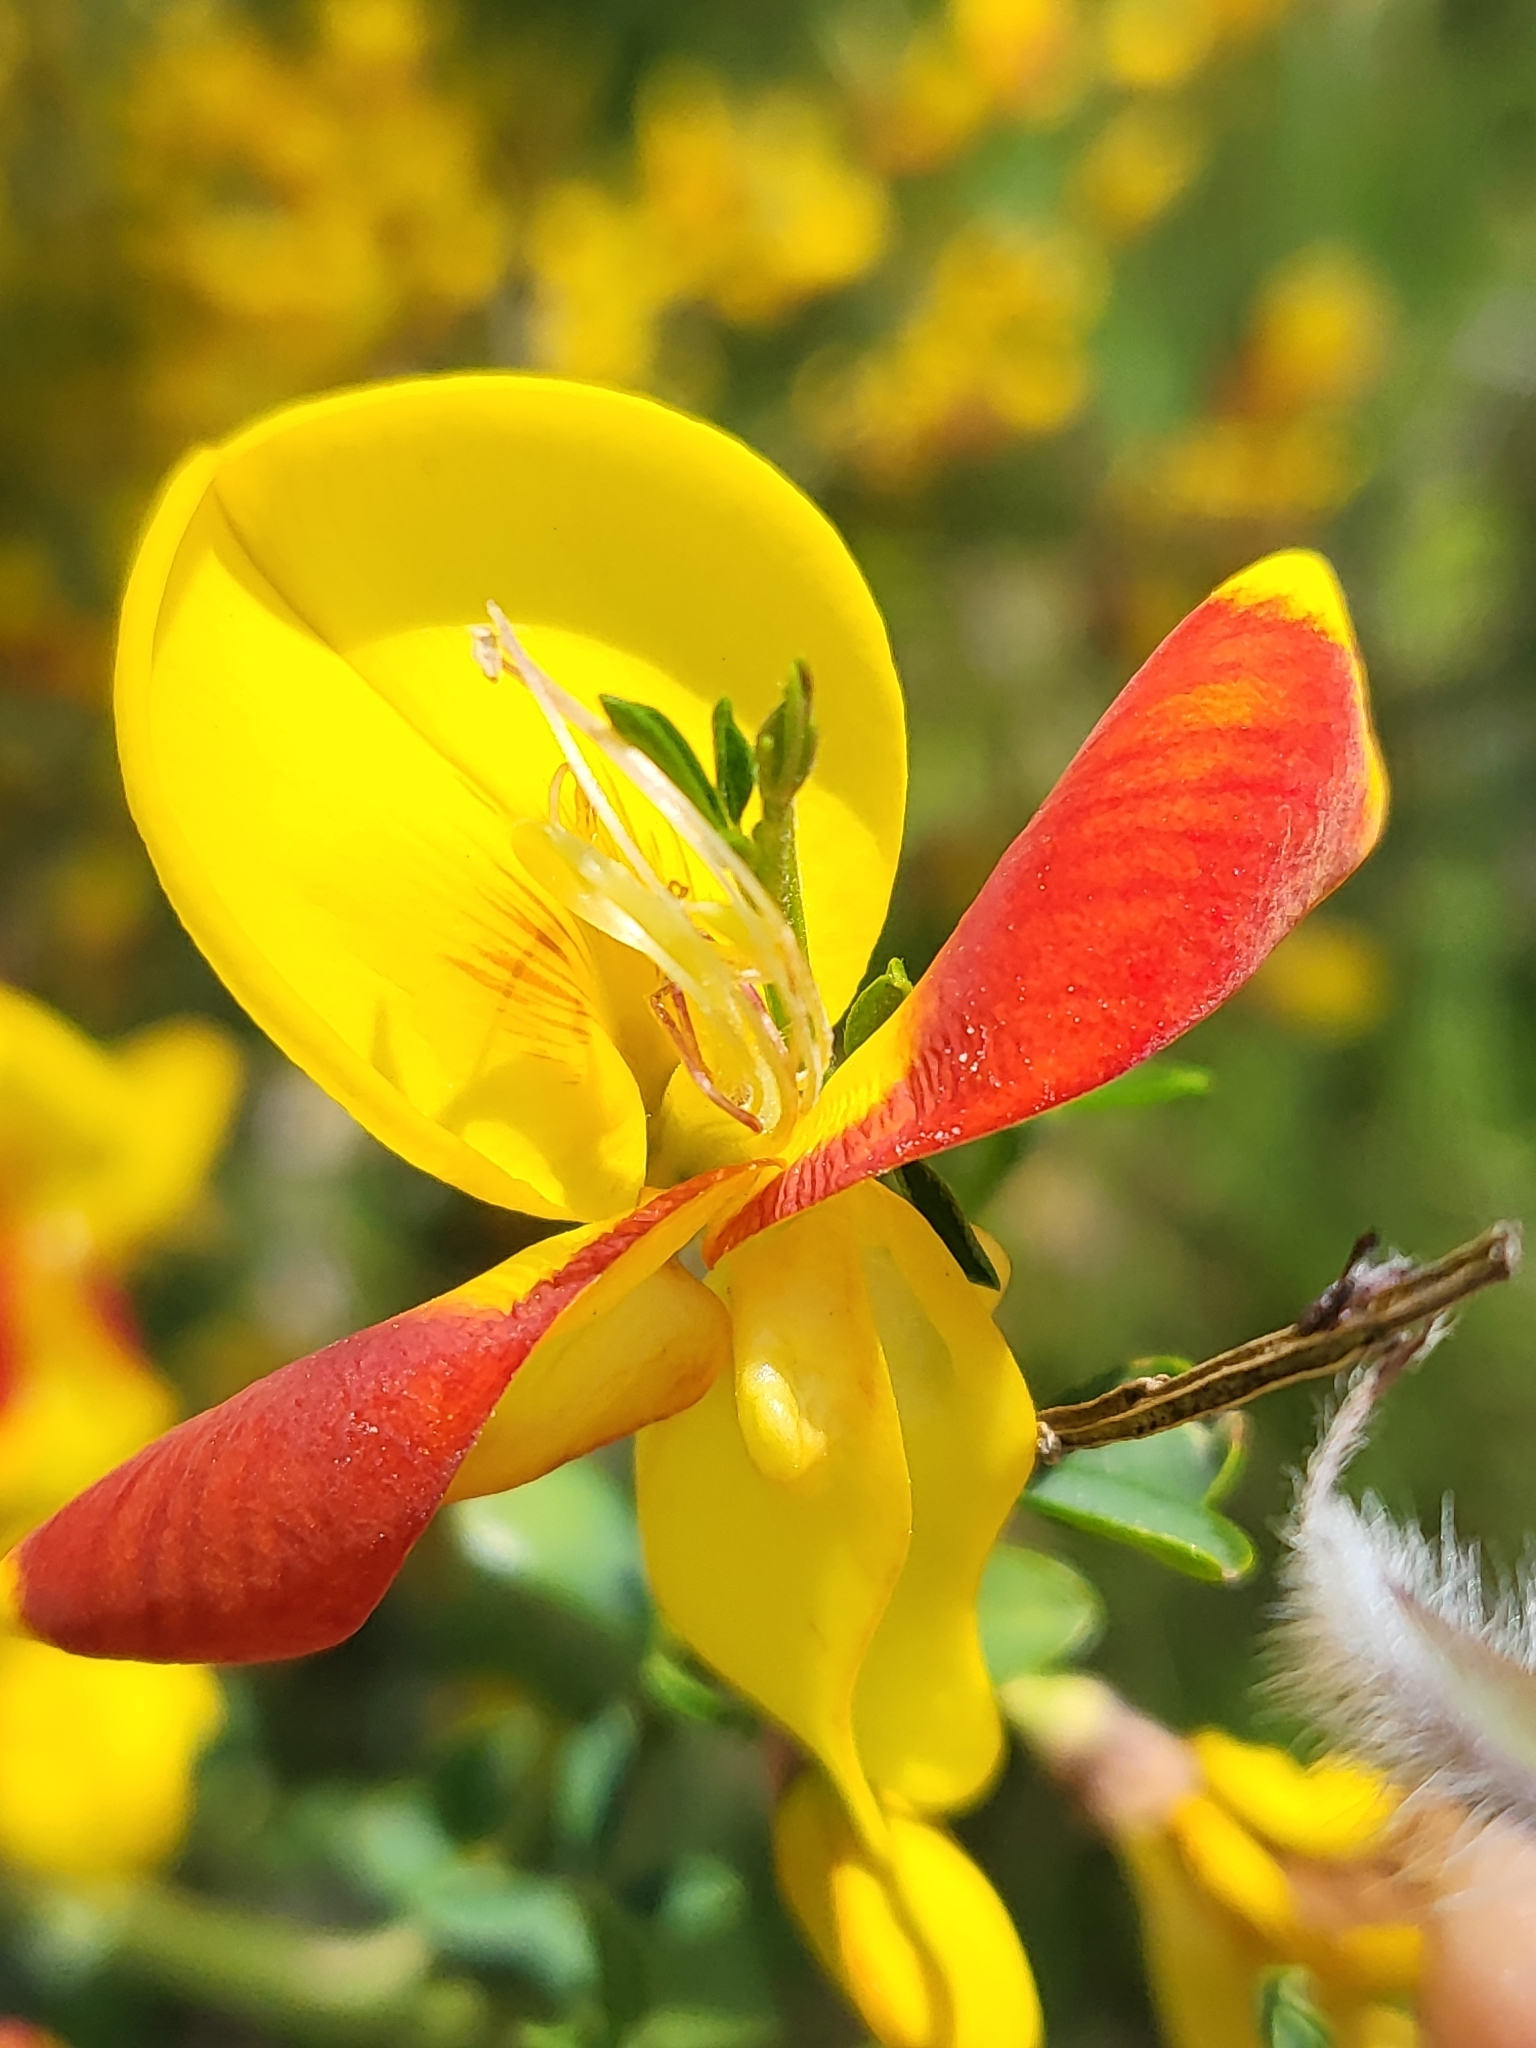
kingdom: Plantae
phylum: Tracheophyta
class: Magnoliopsida
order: Fabales
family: Fabaceae
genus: Cytisus
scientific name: Cytisus scoparius
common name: Scotch broom
